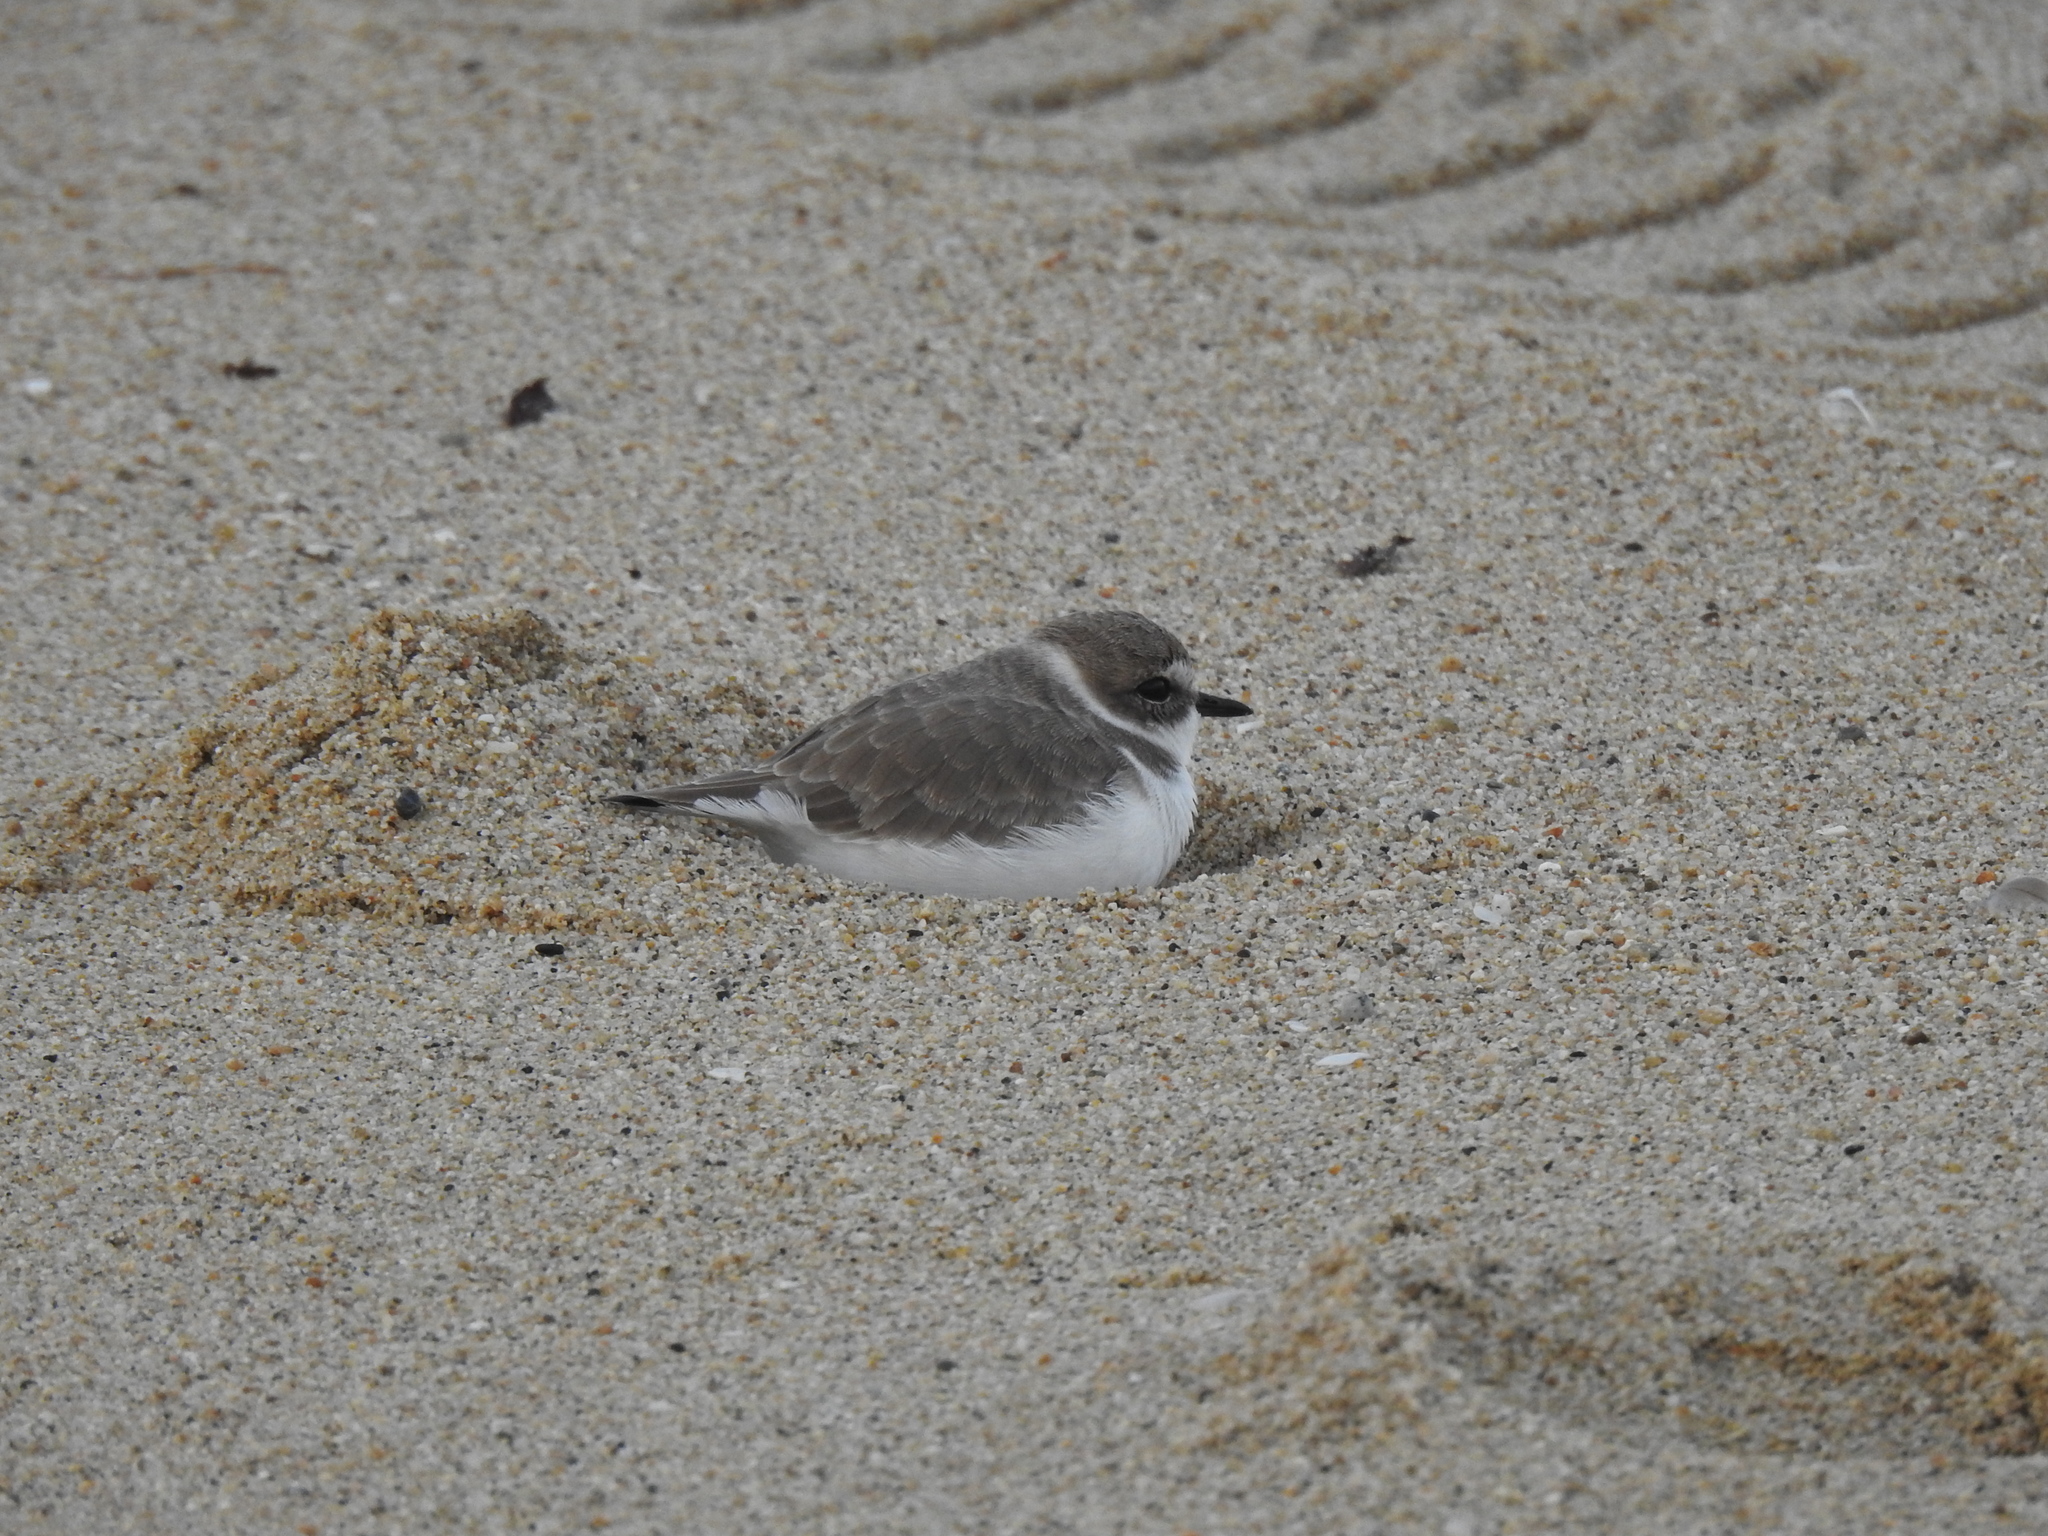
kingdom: Animalia
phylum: Chordata
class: Aves
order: Charadriiformes
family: Charadriidae
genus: Anarhynchus
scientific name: Anarhynchus
